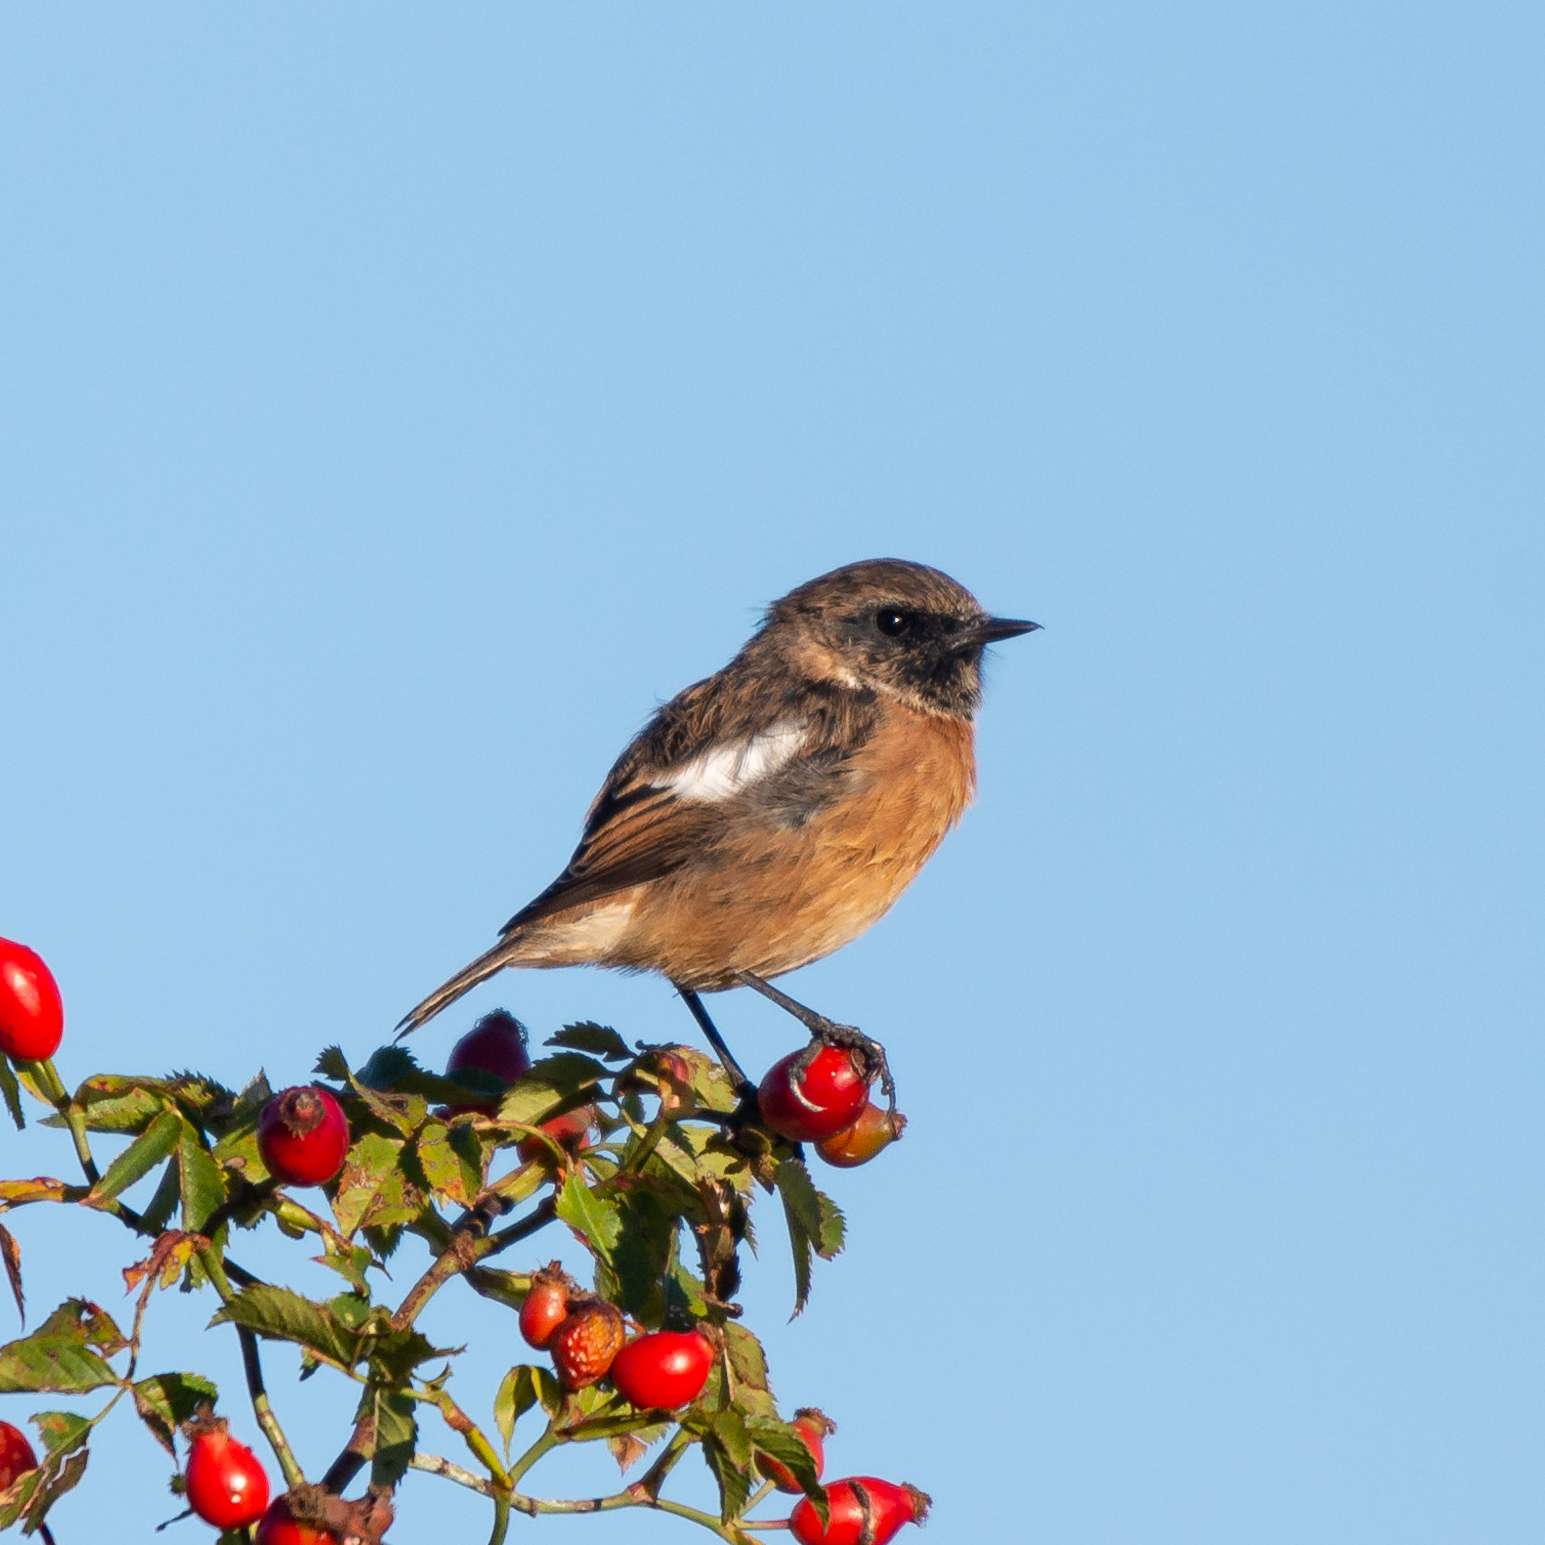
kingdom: Animalia
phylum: Chordata
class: Aves
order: Passeriformes
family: Muscicapidae
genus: Saxicola
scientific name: Saxicola rubicola
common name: European stonechat
